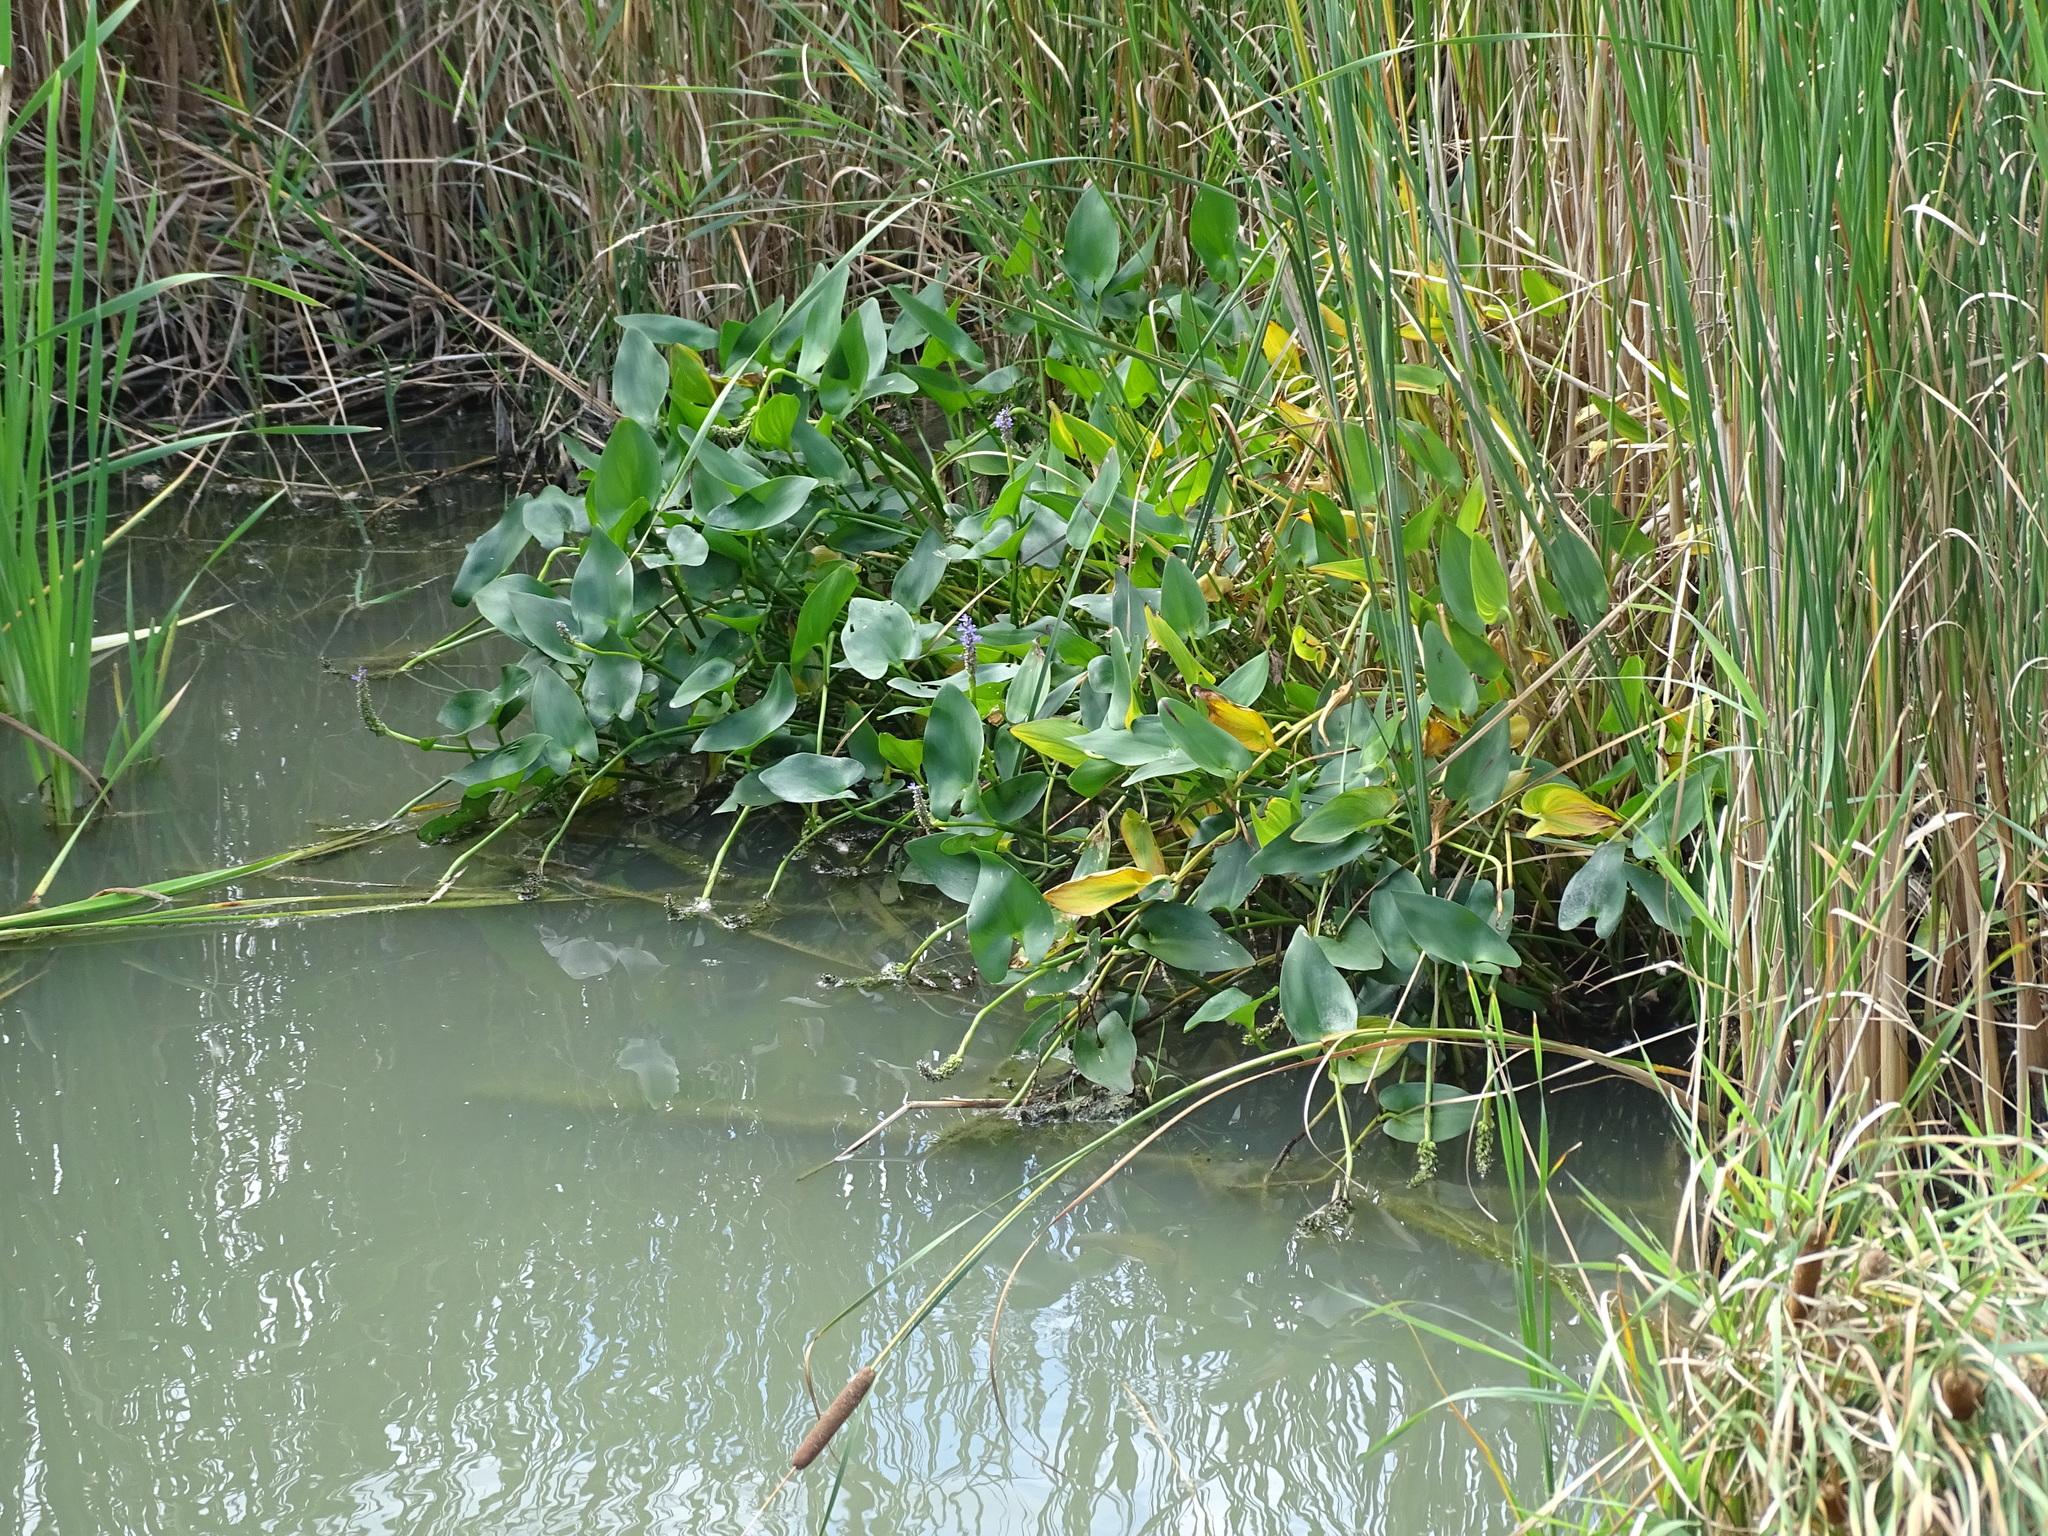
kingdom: Plantae
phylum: Tracheophyta
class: Liliopsida
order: Commelinales
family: Pontederiaceae
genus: Pontederia
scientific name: Pontederia cordata
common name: Pickerelweed
